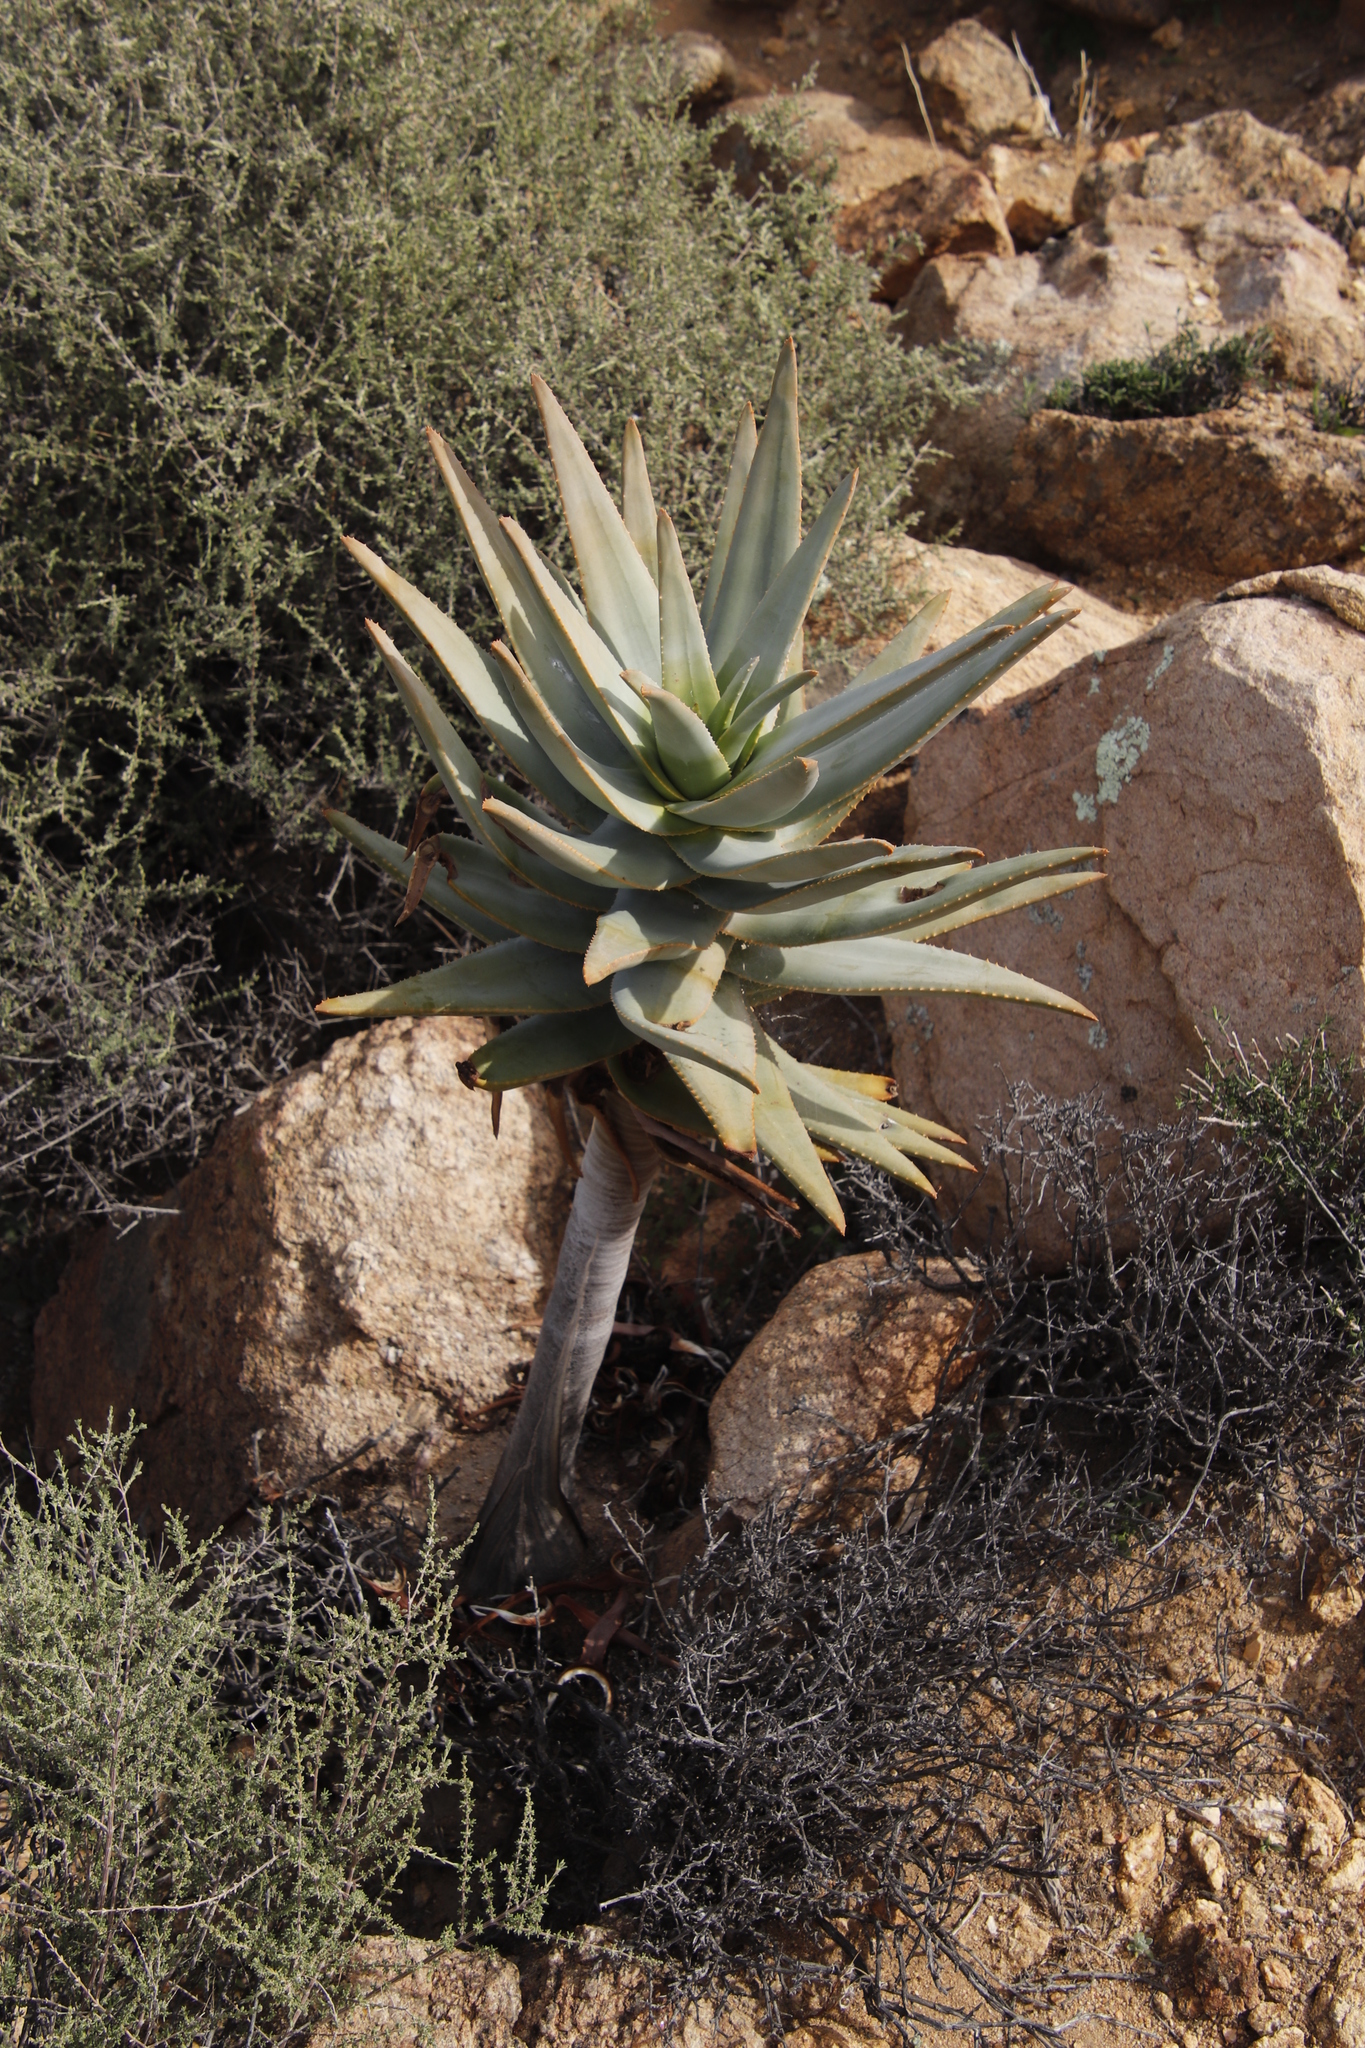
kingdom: Plantae
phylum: Tracheophyta
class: Liliopsida
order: Asparagales
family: Asphodelaceae
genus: Aloidendron
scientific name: Aloidendron dichotomum
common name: Quiver tree
